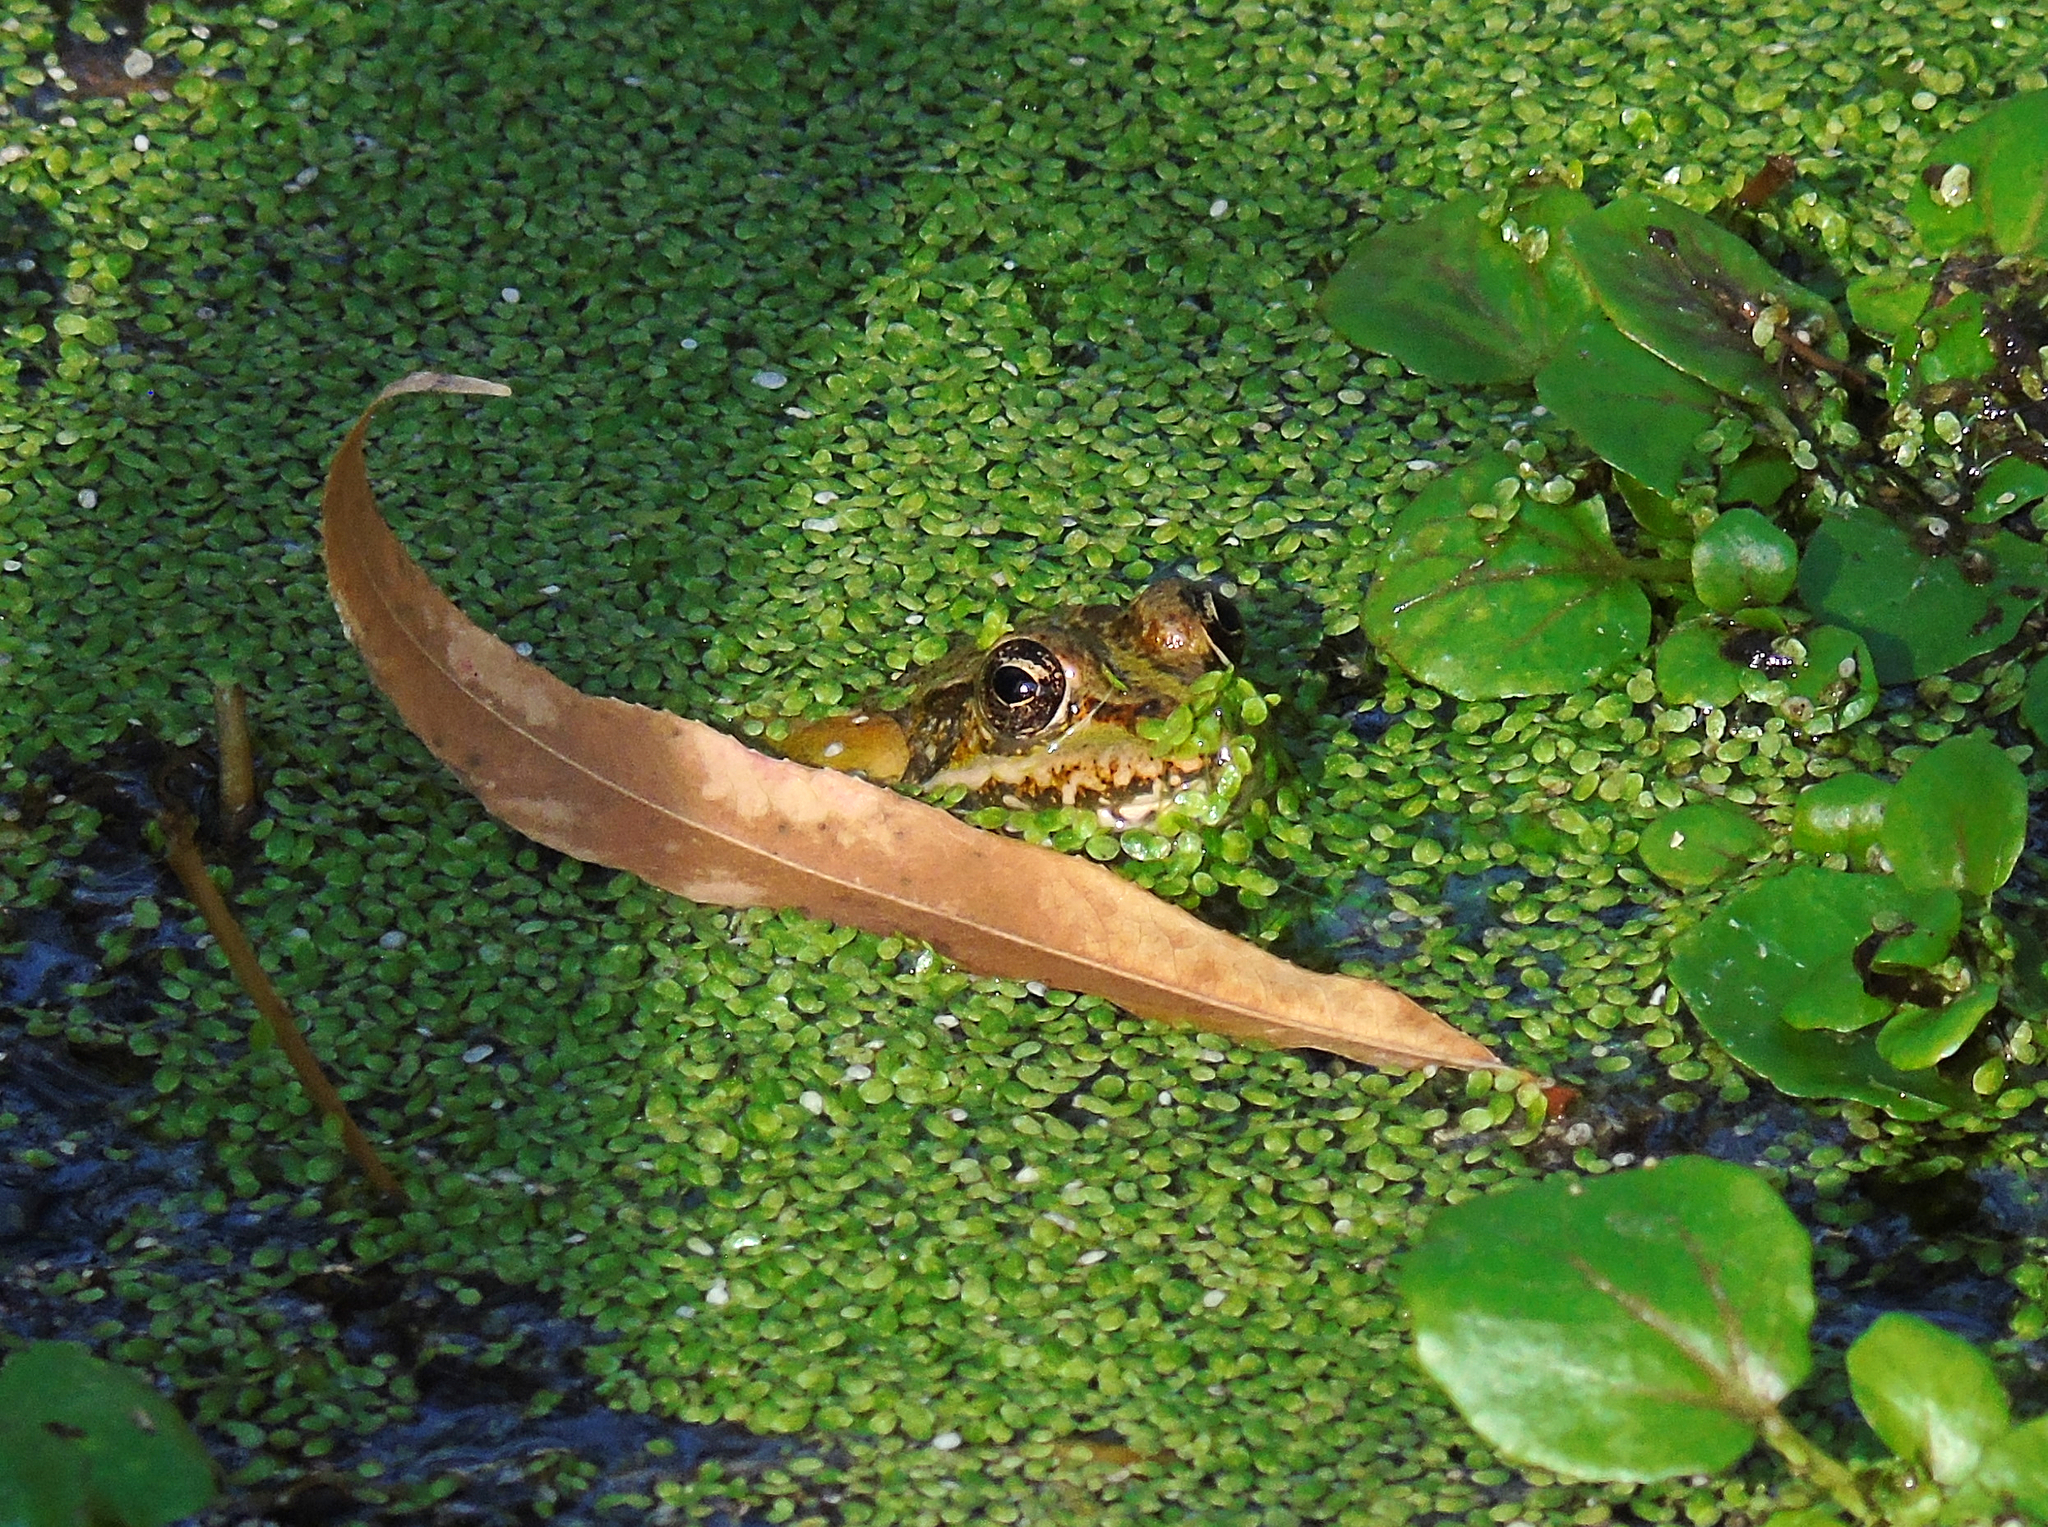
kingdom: Animalia
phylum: Chordata
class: Amphibia
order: Anura
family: Ranidae
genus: Pelophylax
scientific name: Pelophylax ridibundus
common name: Marsh frog
